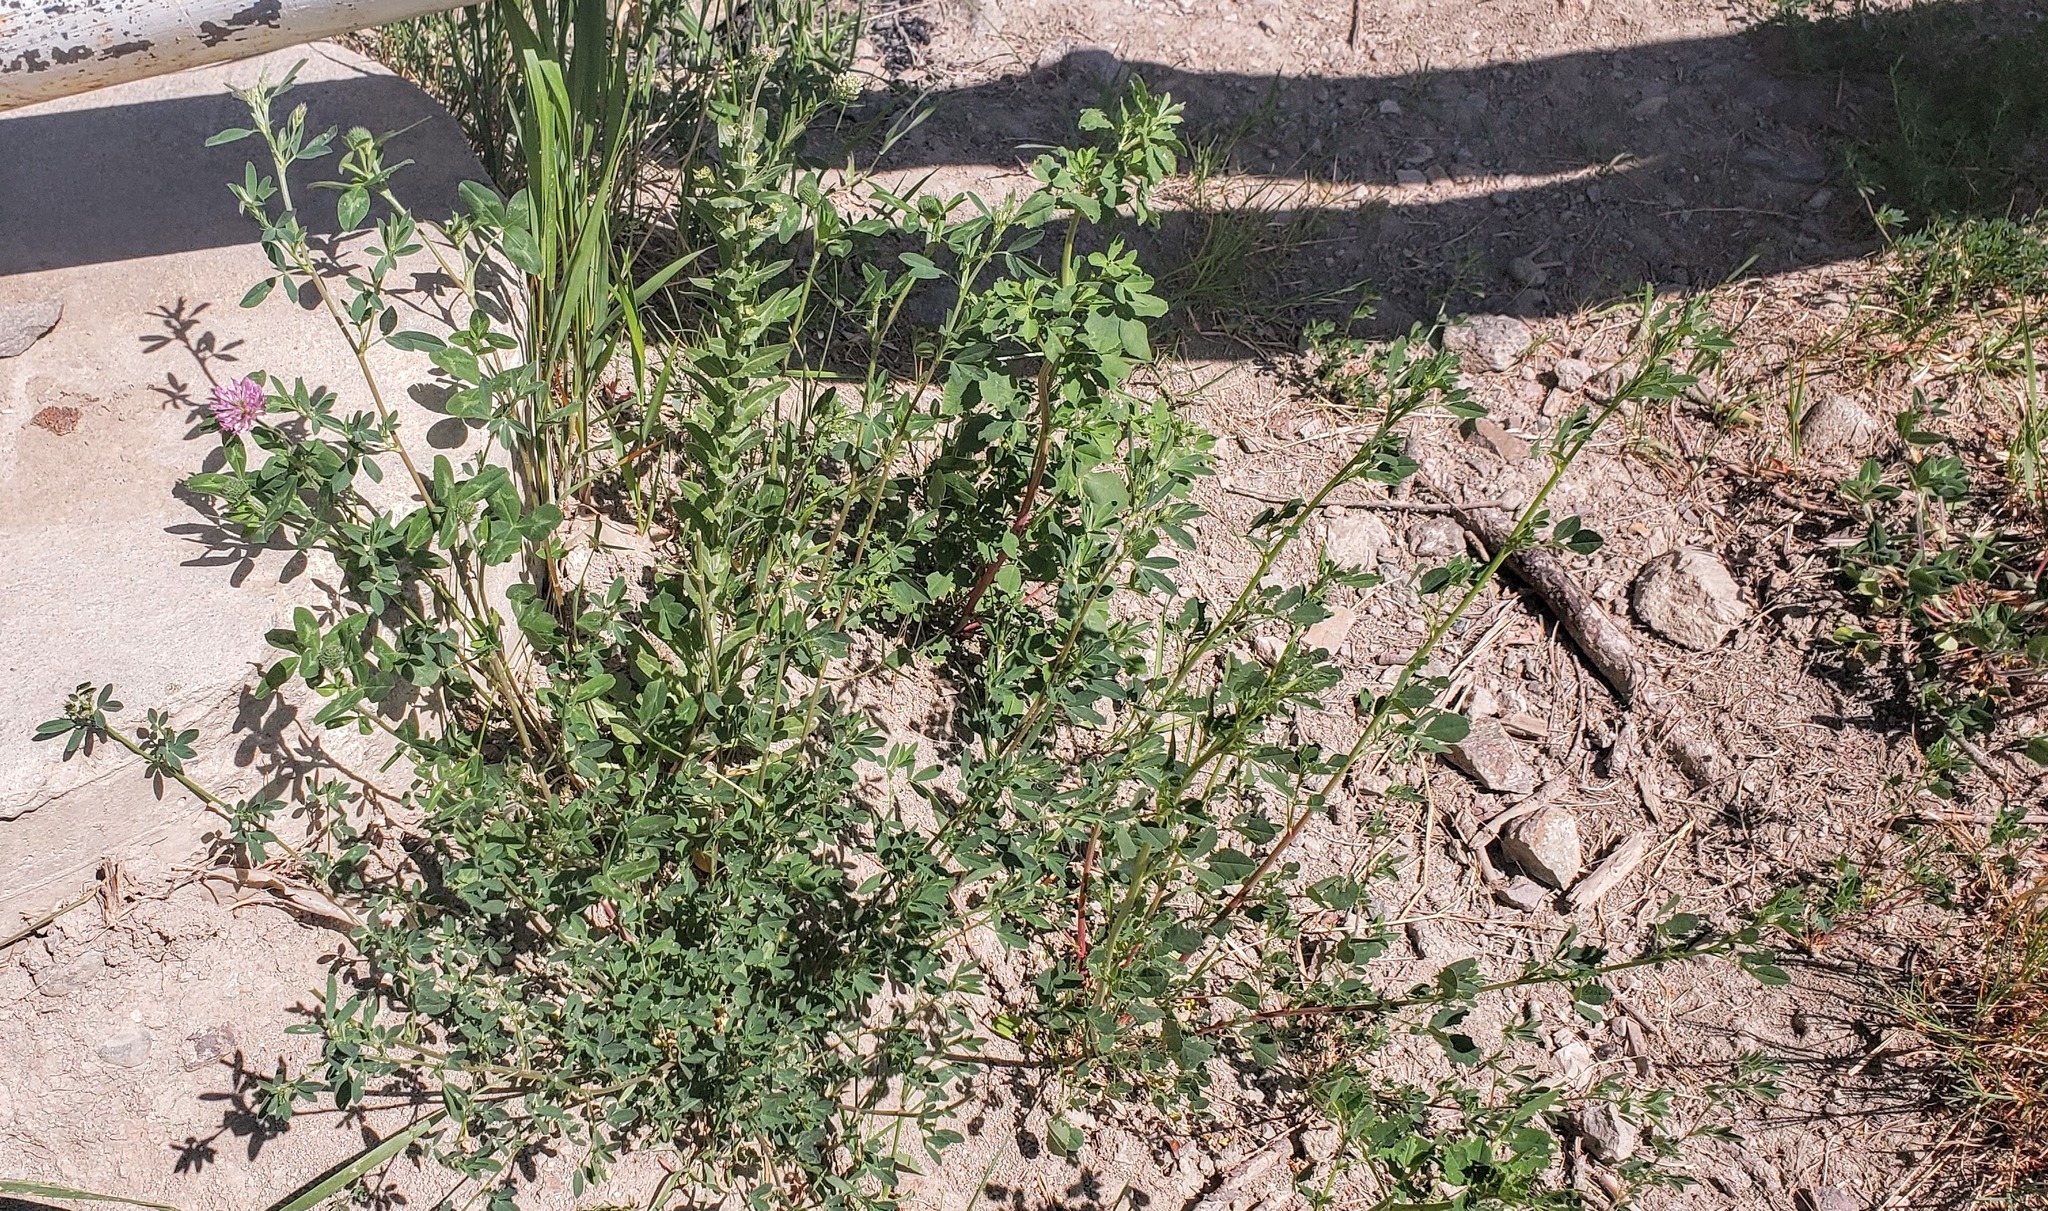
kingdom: Plantae
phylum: Tracheophyta
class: Magnoliopsida
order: Fabales
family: Fabaceae
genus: Trifolium
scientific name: Trifolium pratense
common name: Red clover
